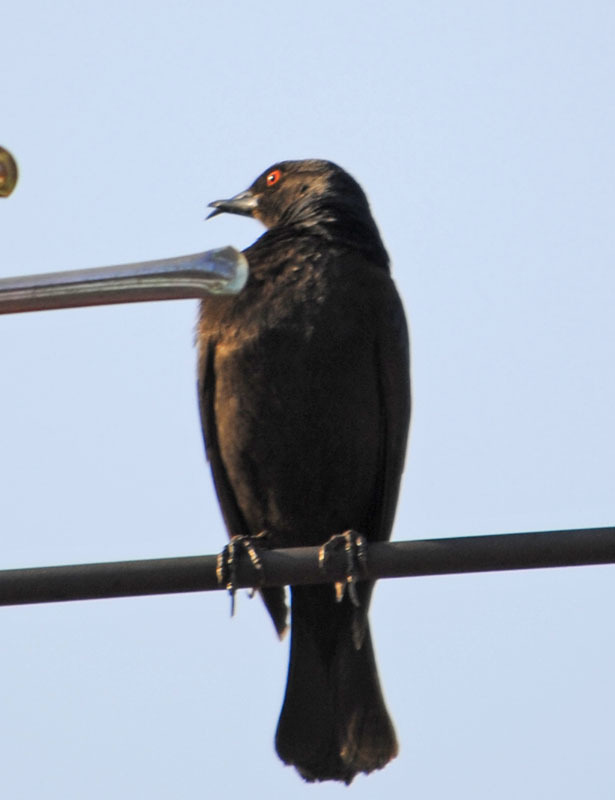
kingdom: Animalia
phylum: Chordata
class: Aves
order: Passeriformes
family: Icteridae
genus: Molothrus
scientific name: Molothrus aeneus
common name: Bronzed cowbird
